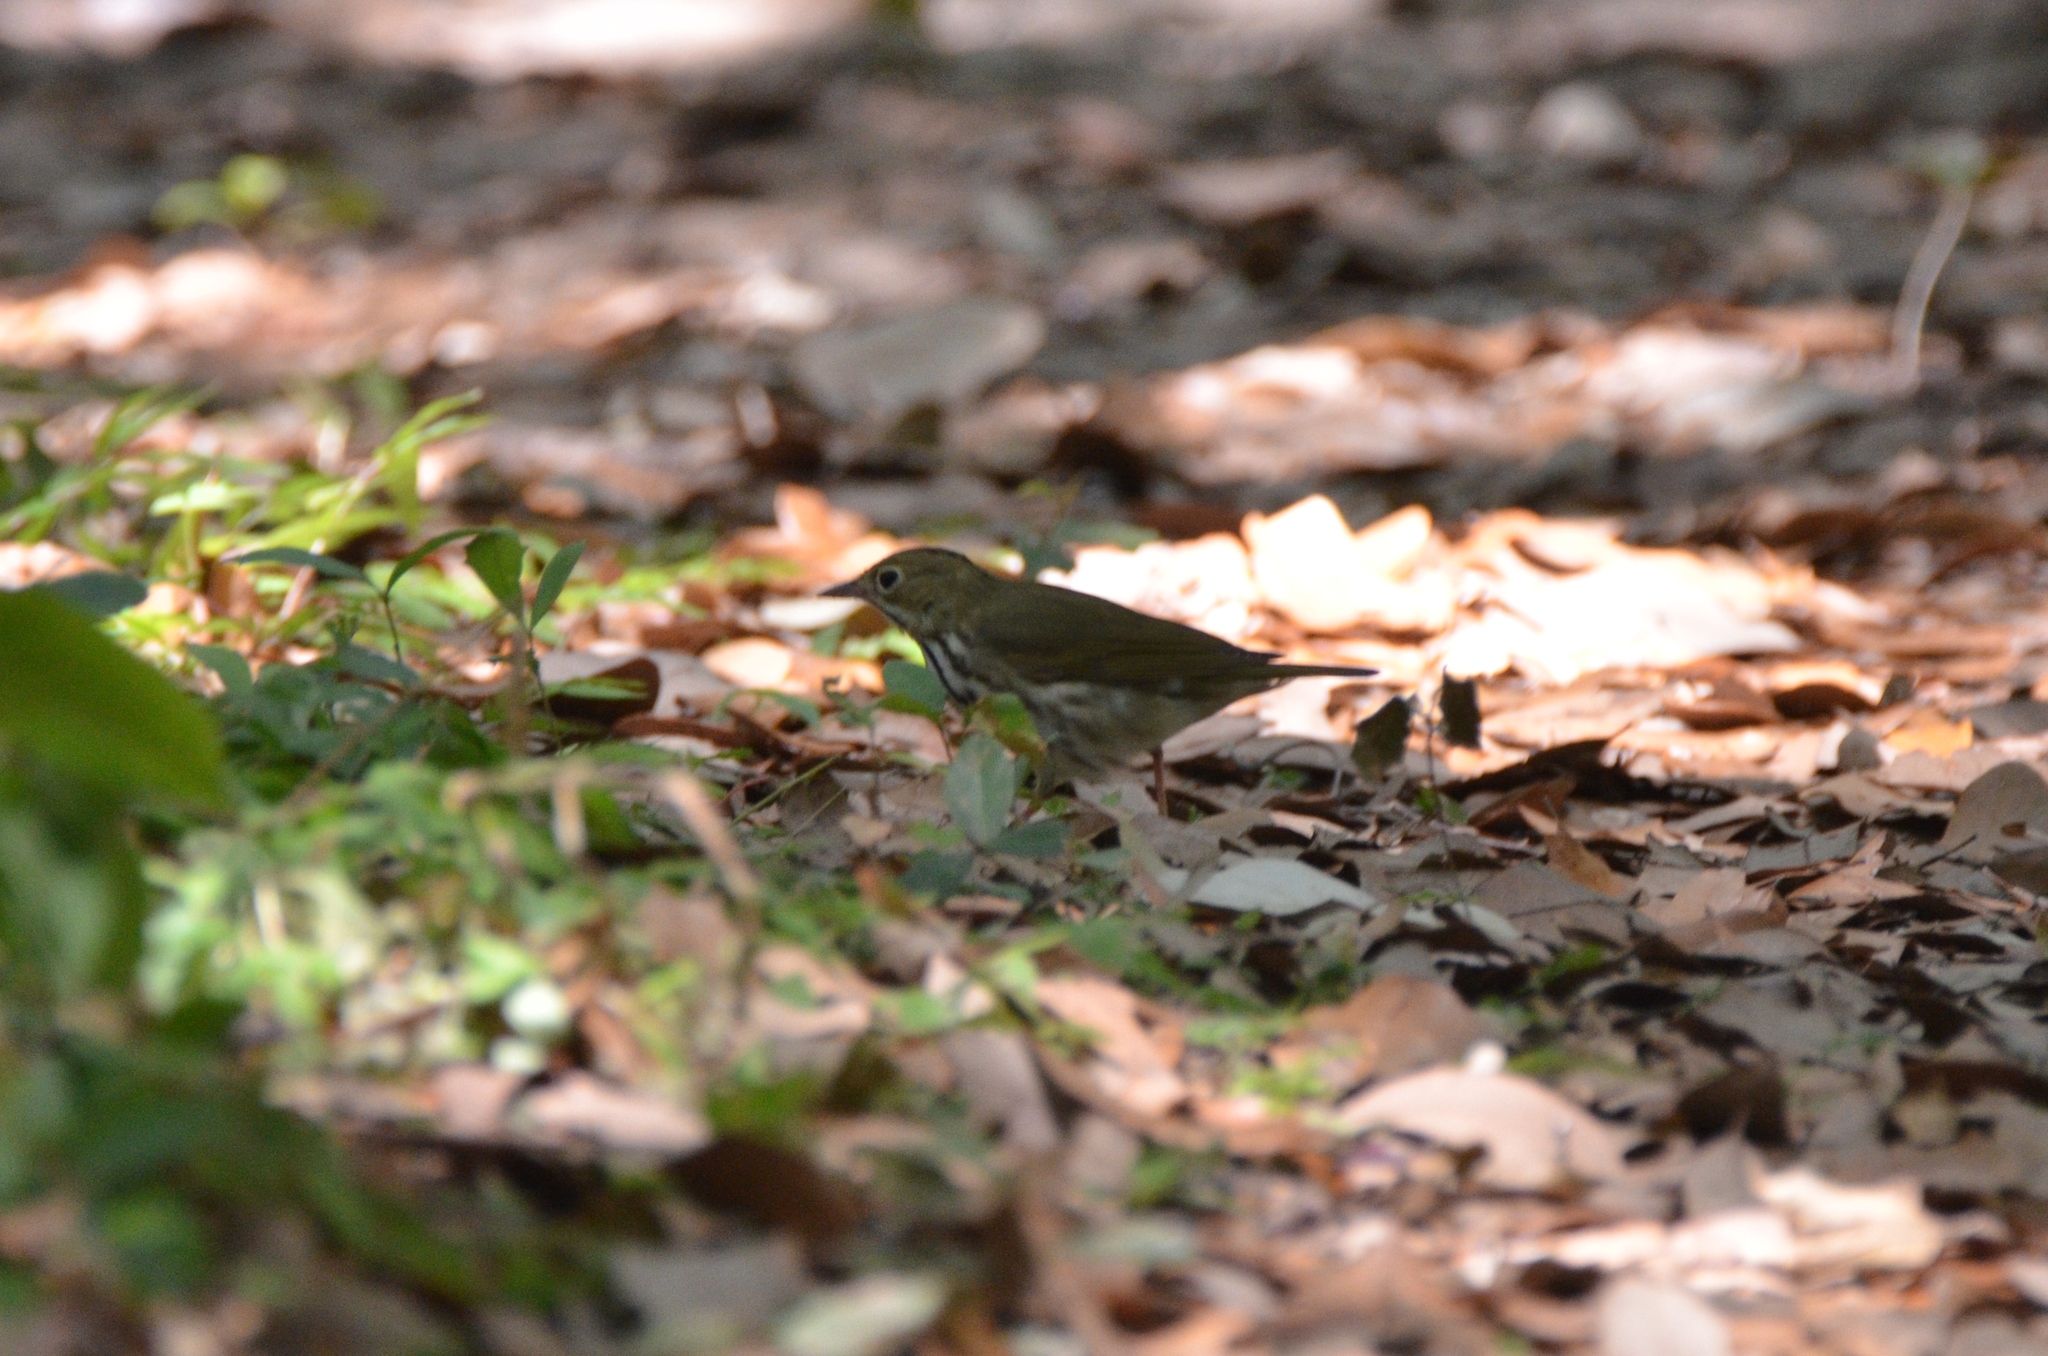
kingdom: Animalia
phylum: Chordata
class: Aves
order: Passeriformes
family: Parulidae
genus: Seiurus
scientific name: Seiurus aurocapilla
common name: Ovenbird
